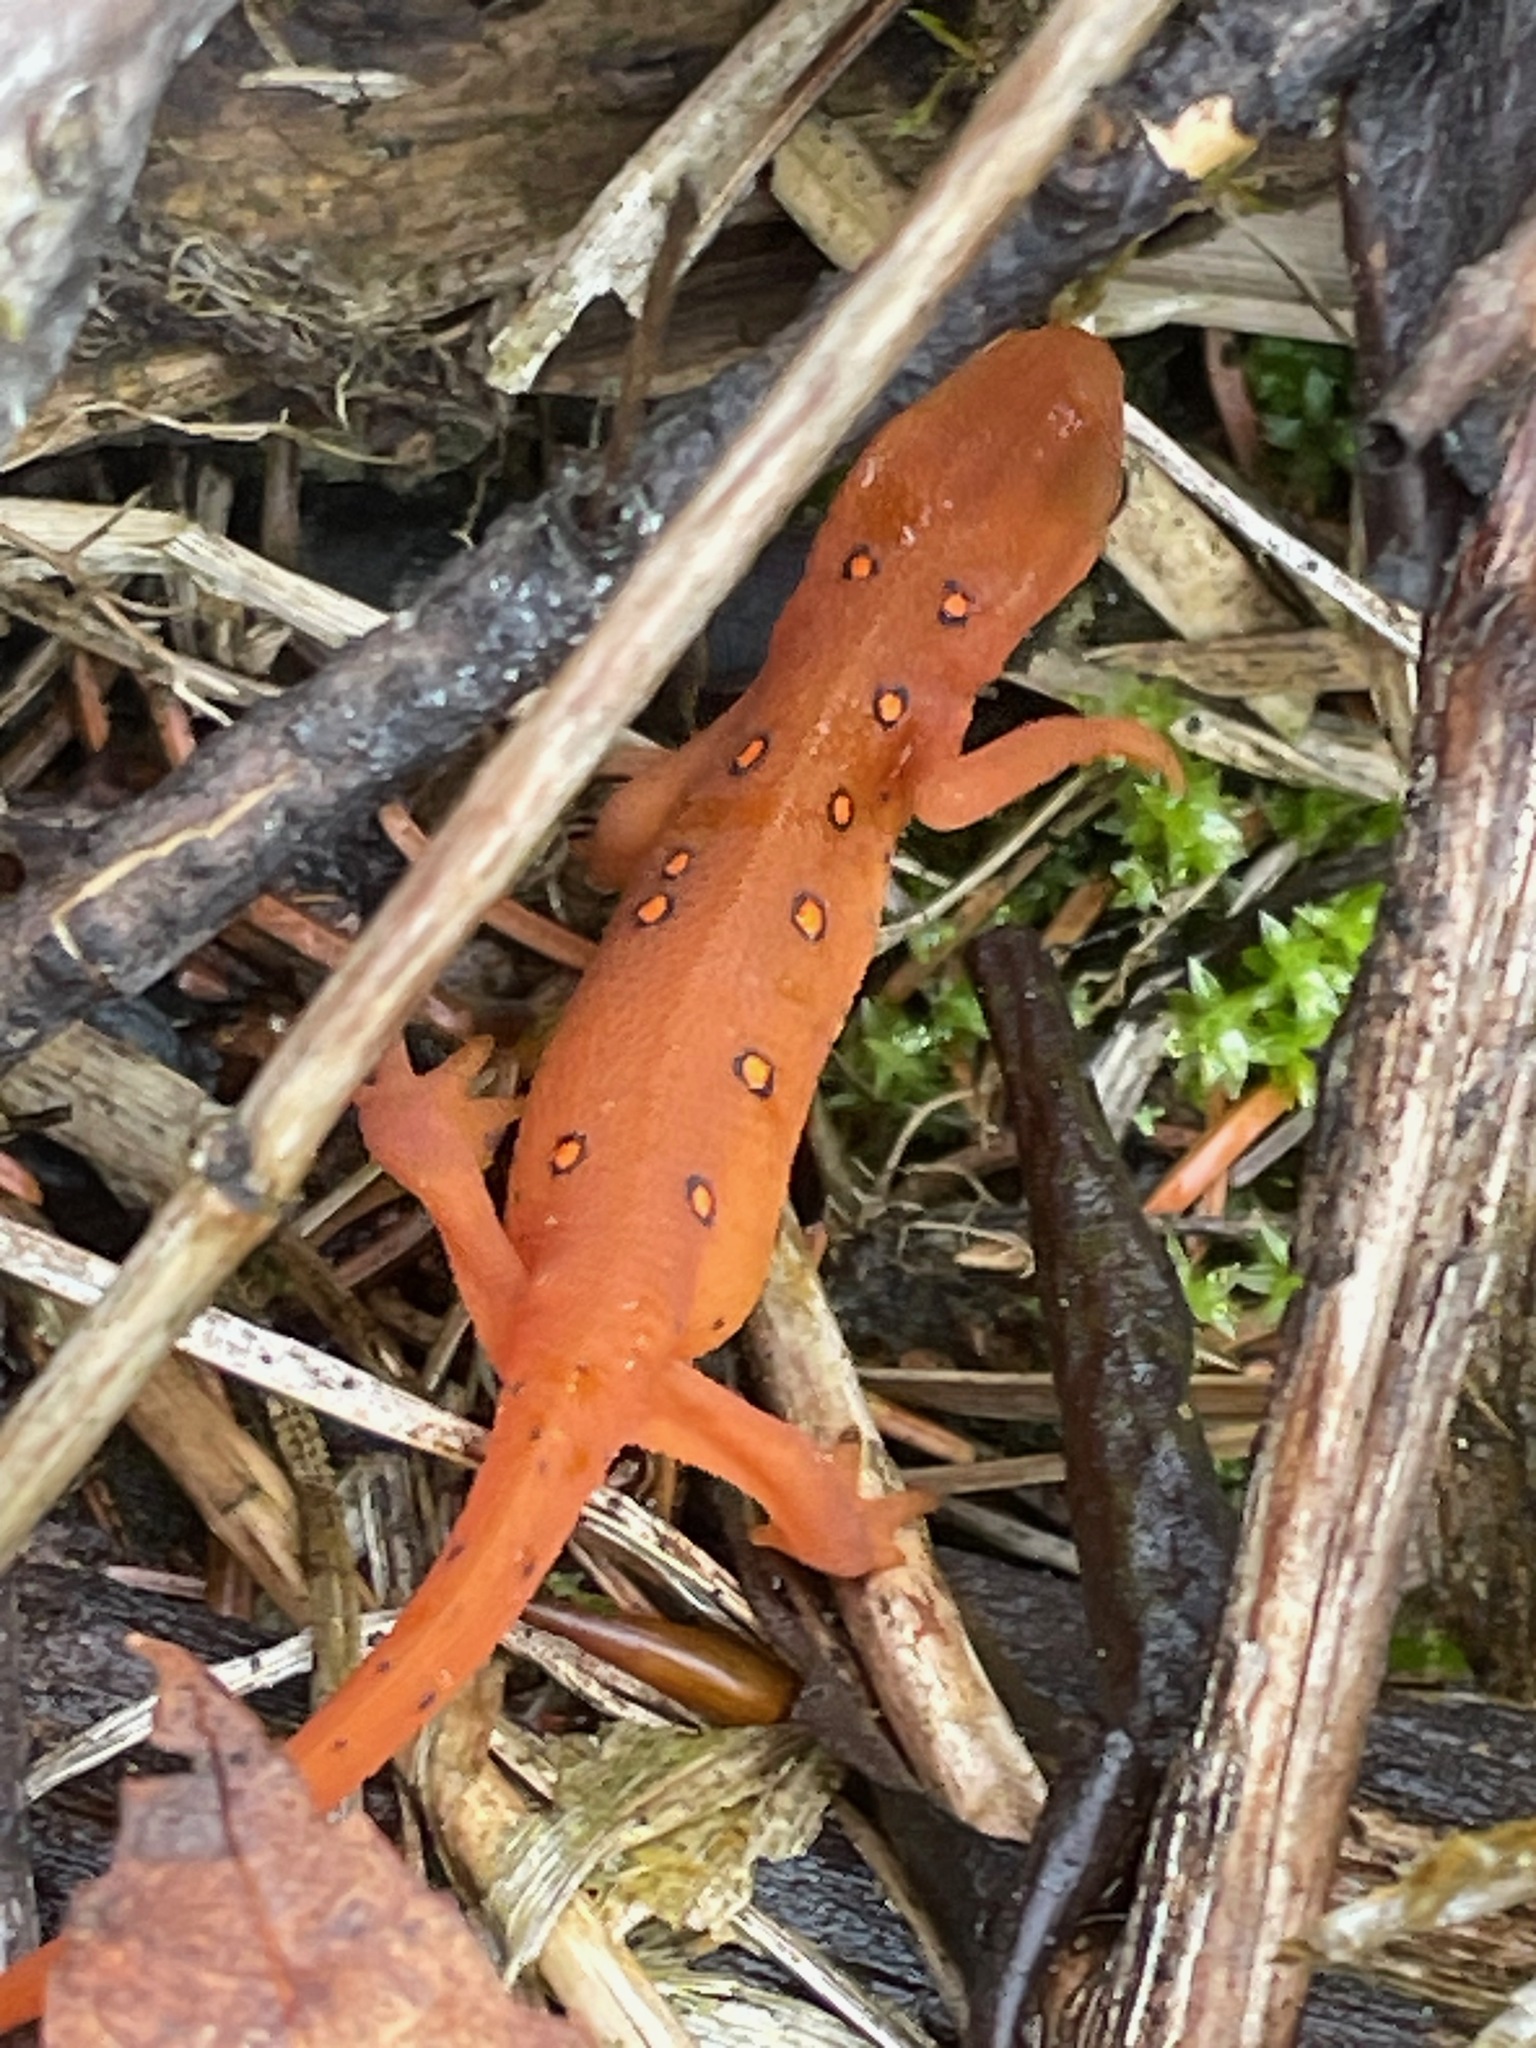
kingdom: Animalia
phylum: Chordata
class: Amphibia
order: Caudata
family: Salamandridae
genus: Notophthalmus
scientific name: Notophthalmus viridescens
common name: Eastern newt
